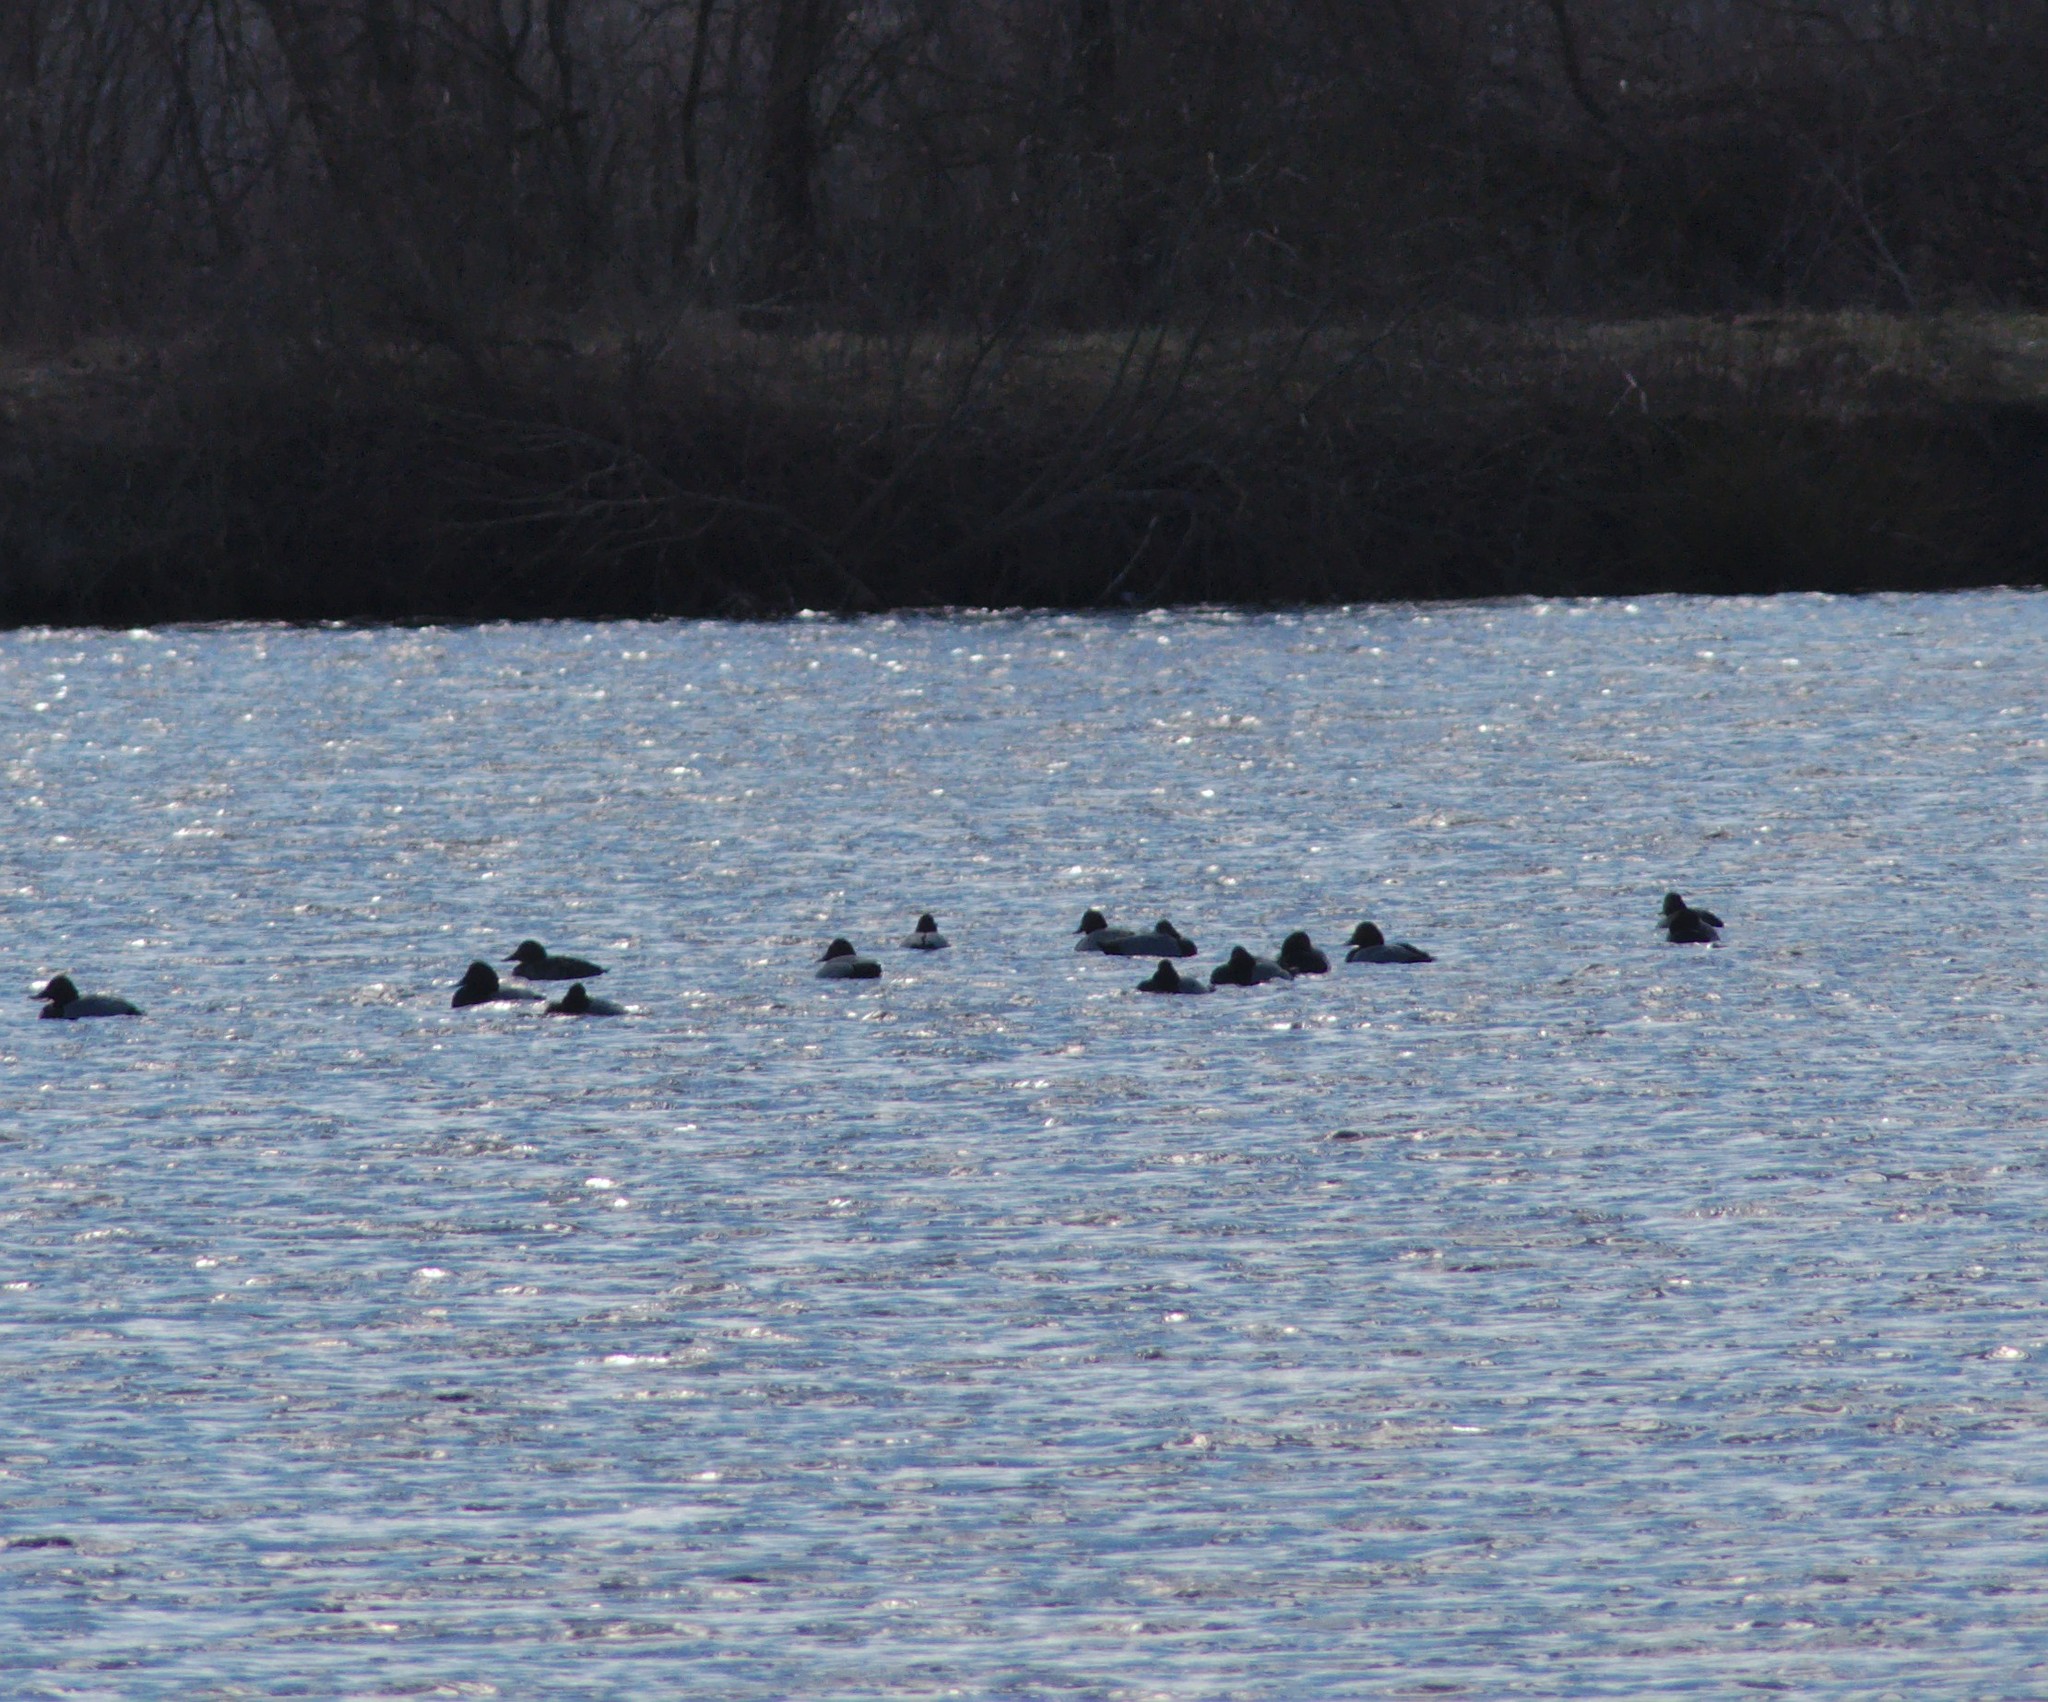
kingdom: Animalia
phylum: Chordata
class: Aves
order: Anseriformes
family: Anatidae
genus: Aythya
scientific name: Aythya ferina
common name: Common pochard
